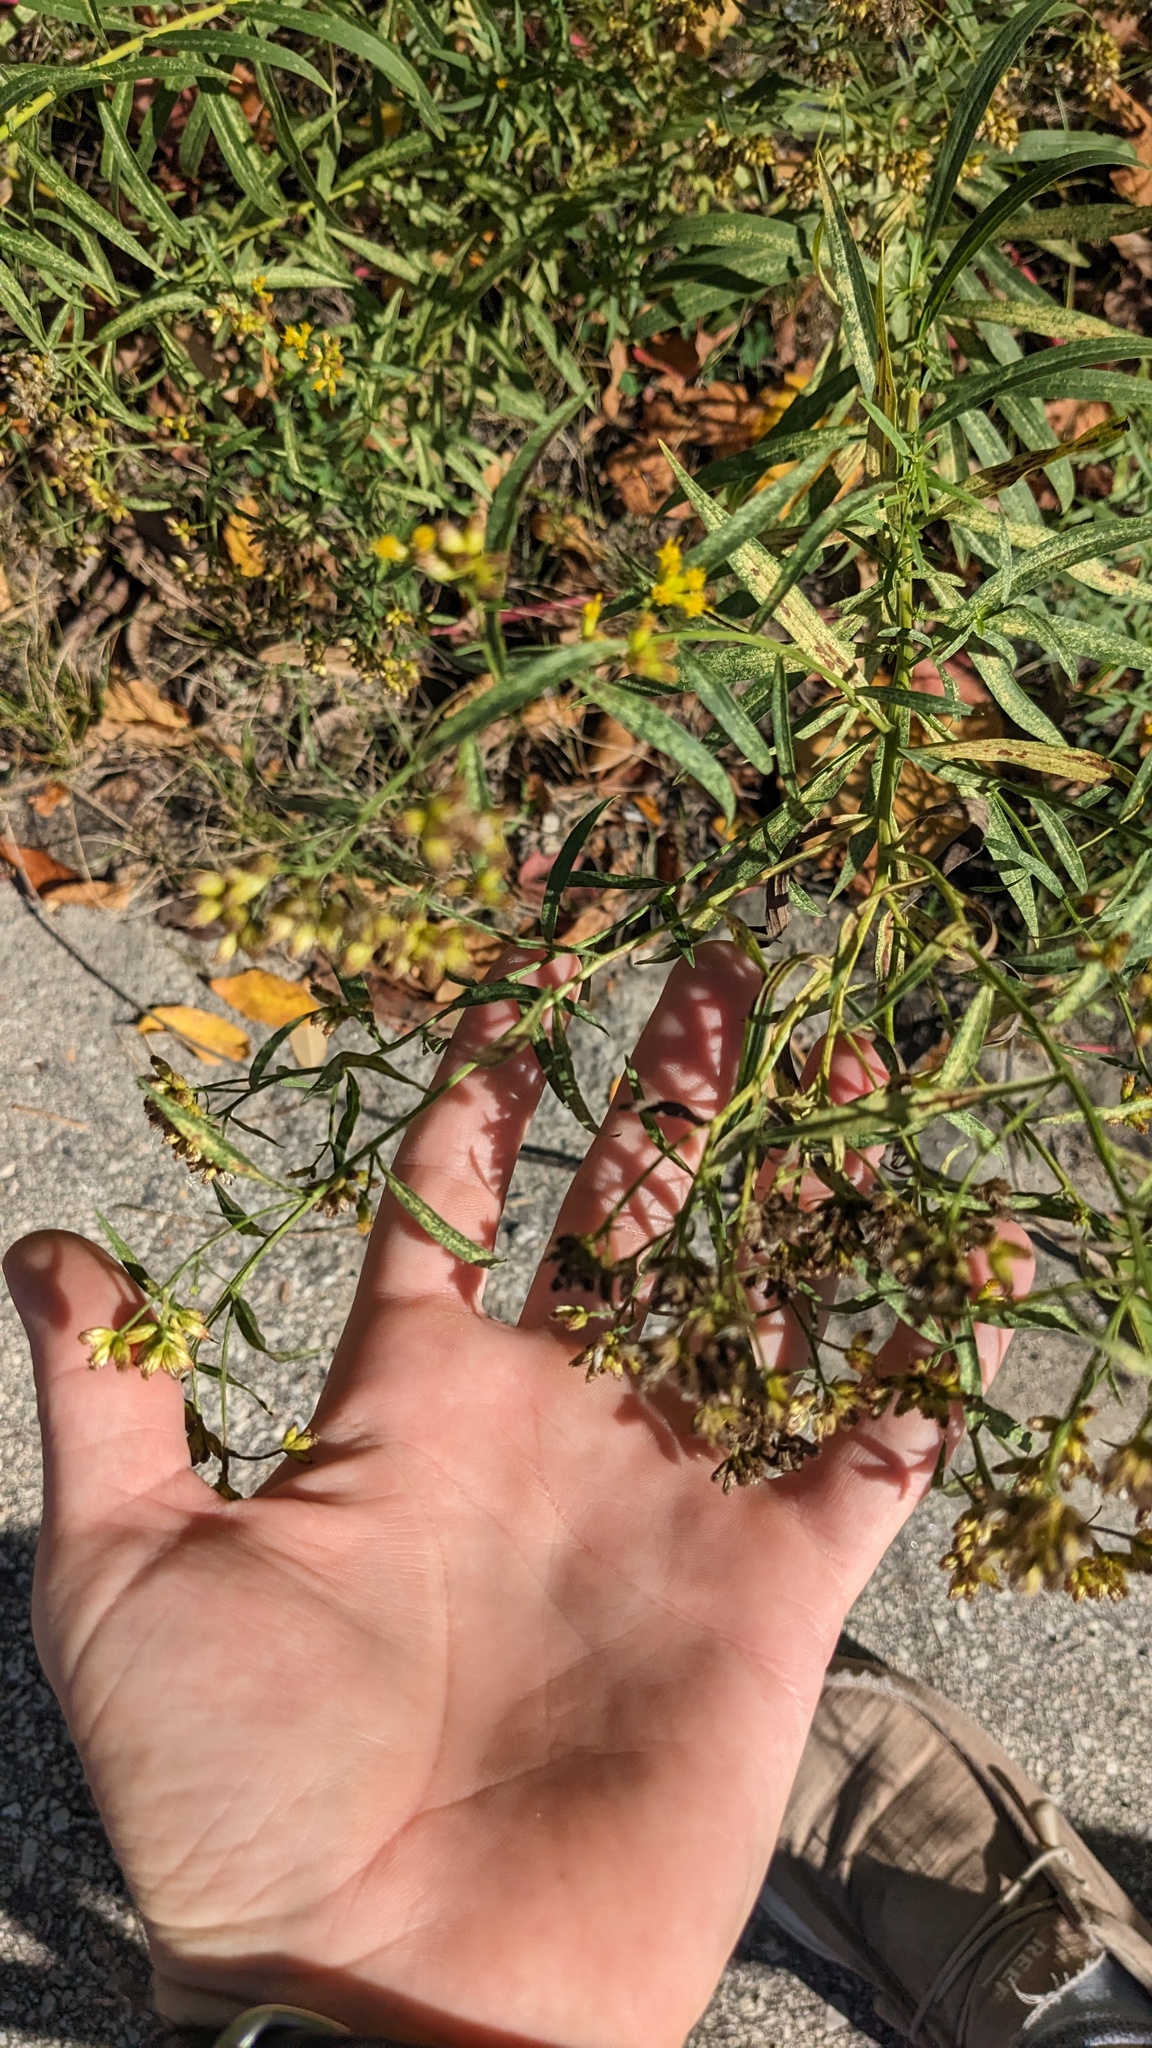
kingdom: Plantae
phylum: Tracheophyta
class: Magnoliopsida
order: Asterales
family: Asteraceae
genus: Euthamia
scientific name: Euthamia graminifolia
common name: Common goldentop
